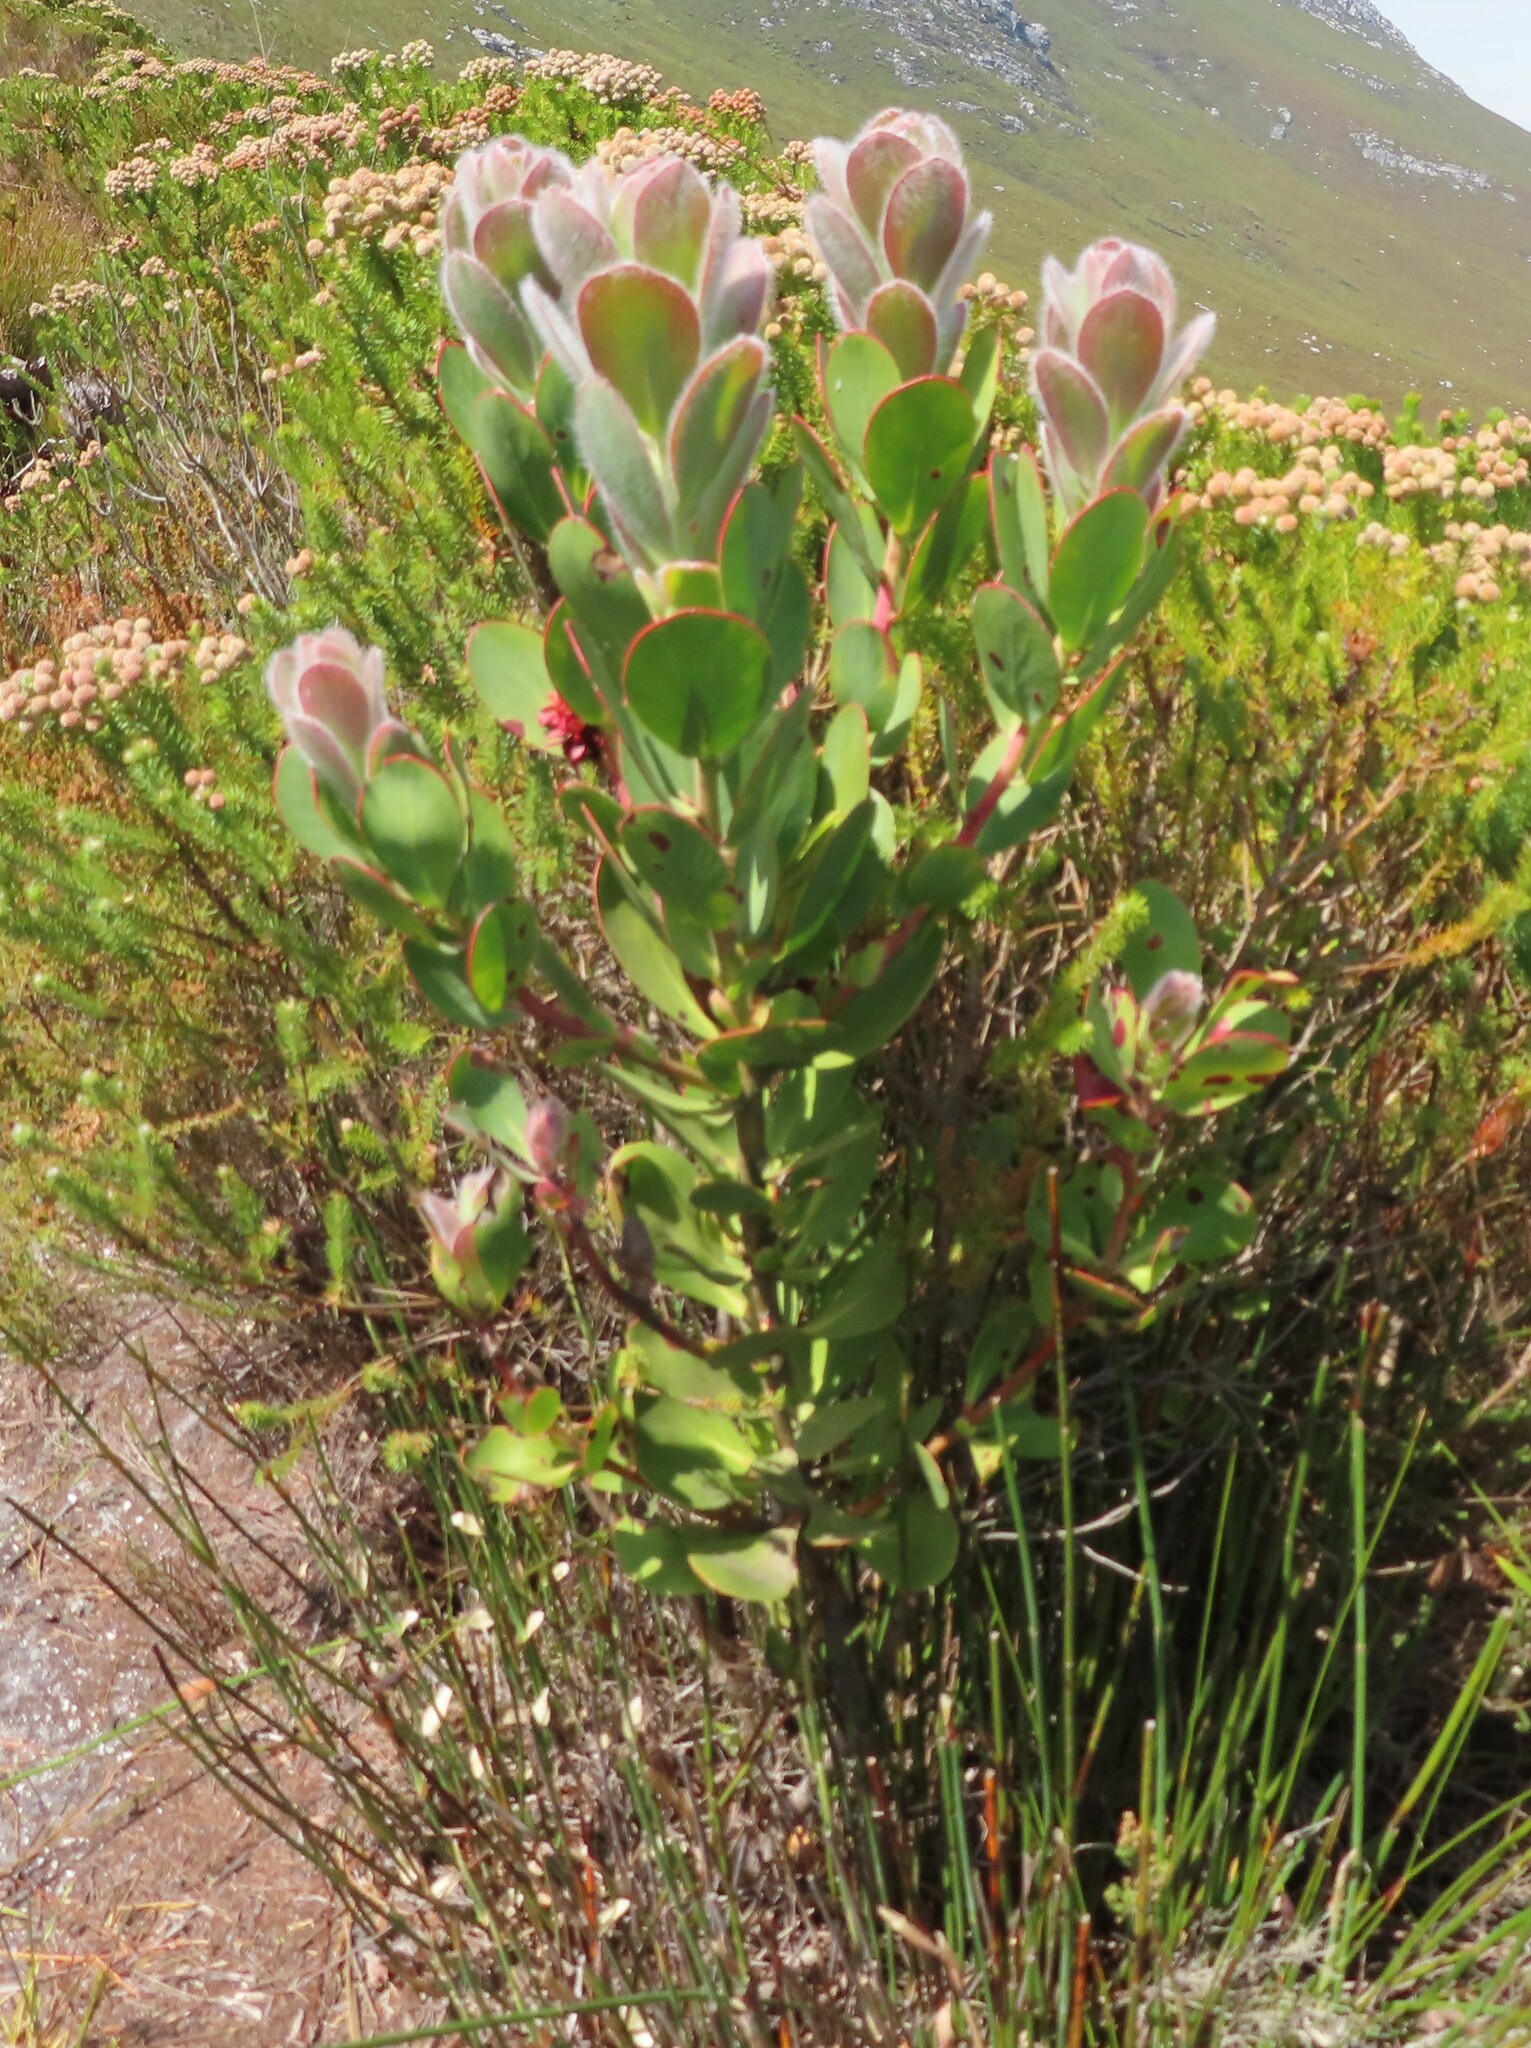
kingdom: Plantae
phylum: Tracheophyta
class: Magnoliopsida
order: Proteales
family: Proteaceae
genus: Protea
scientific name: Protea stokoei
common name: Pink sugarbush
